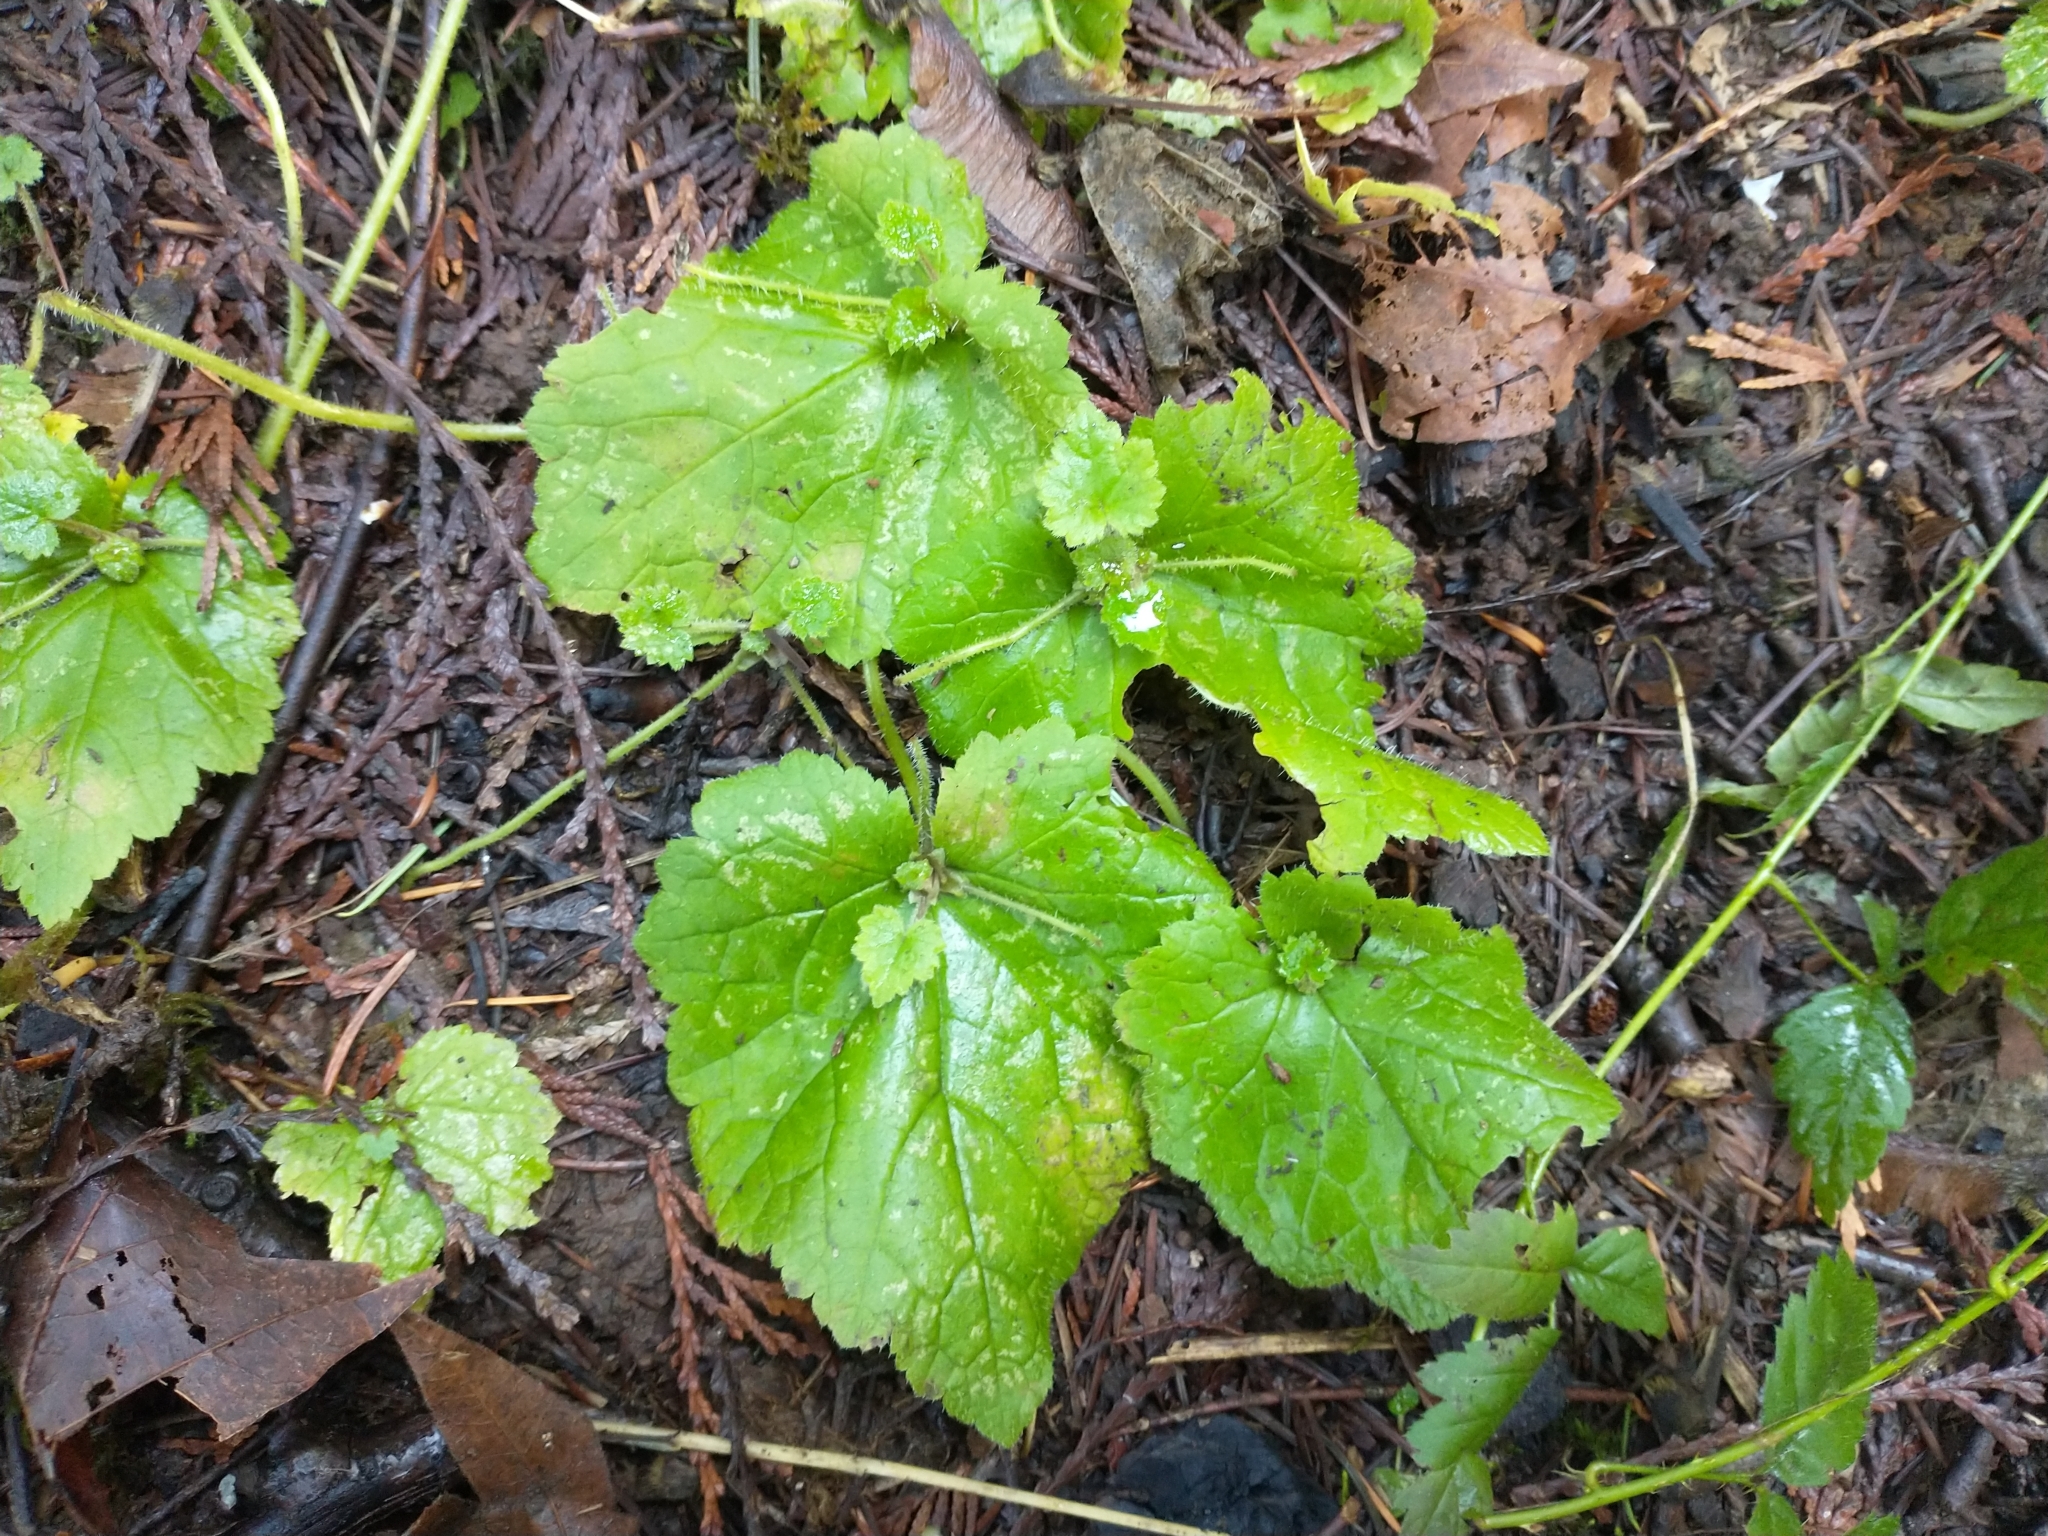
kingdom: Plantae
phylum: Tracheophyta
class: Magnoliopsida
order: Saxifragales
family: Saxifragaceae
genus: Tolmiea
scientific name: Tolmiea menziesii
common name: Pick-a-back-plant
